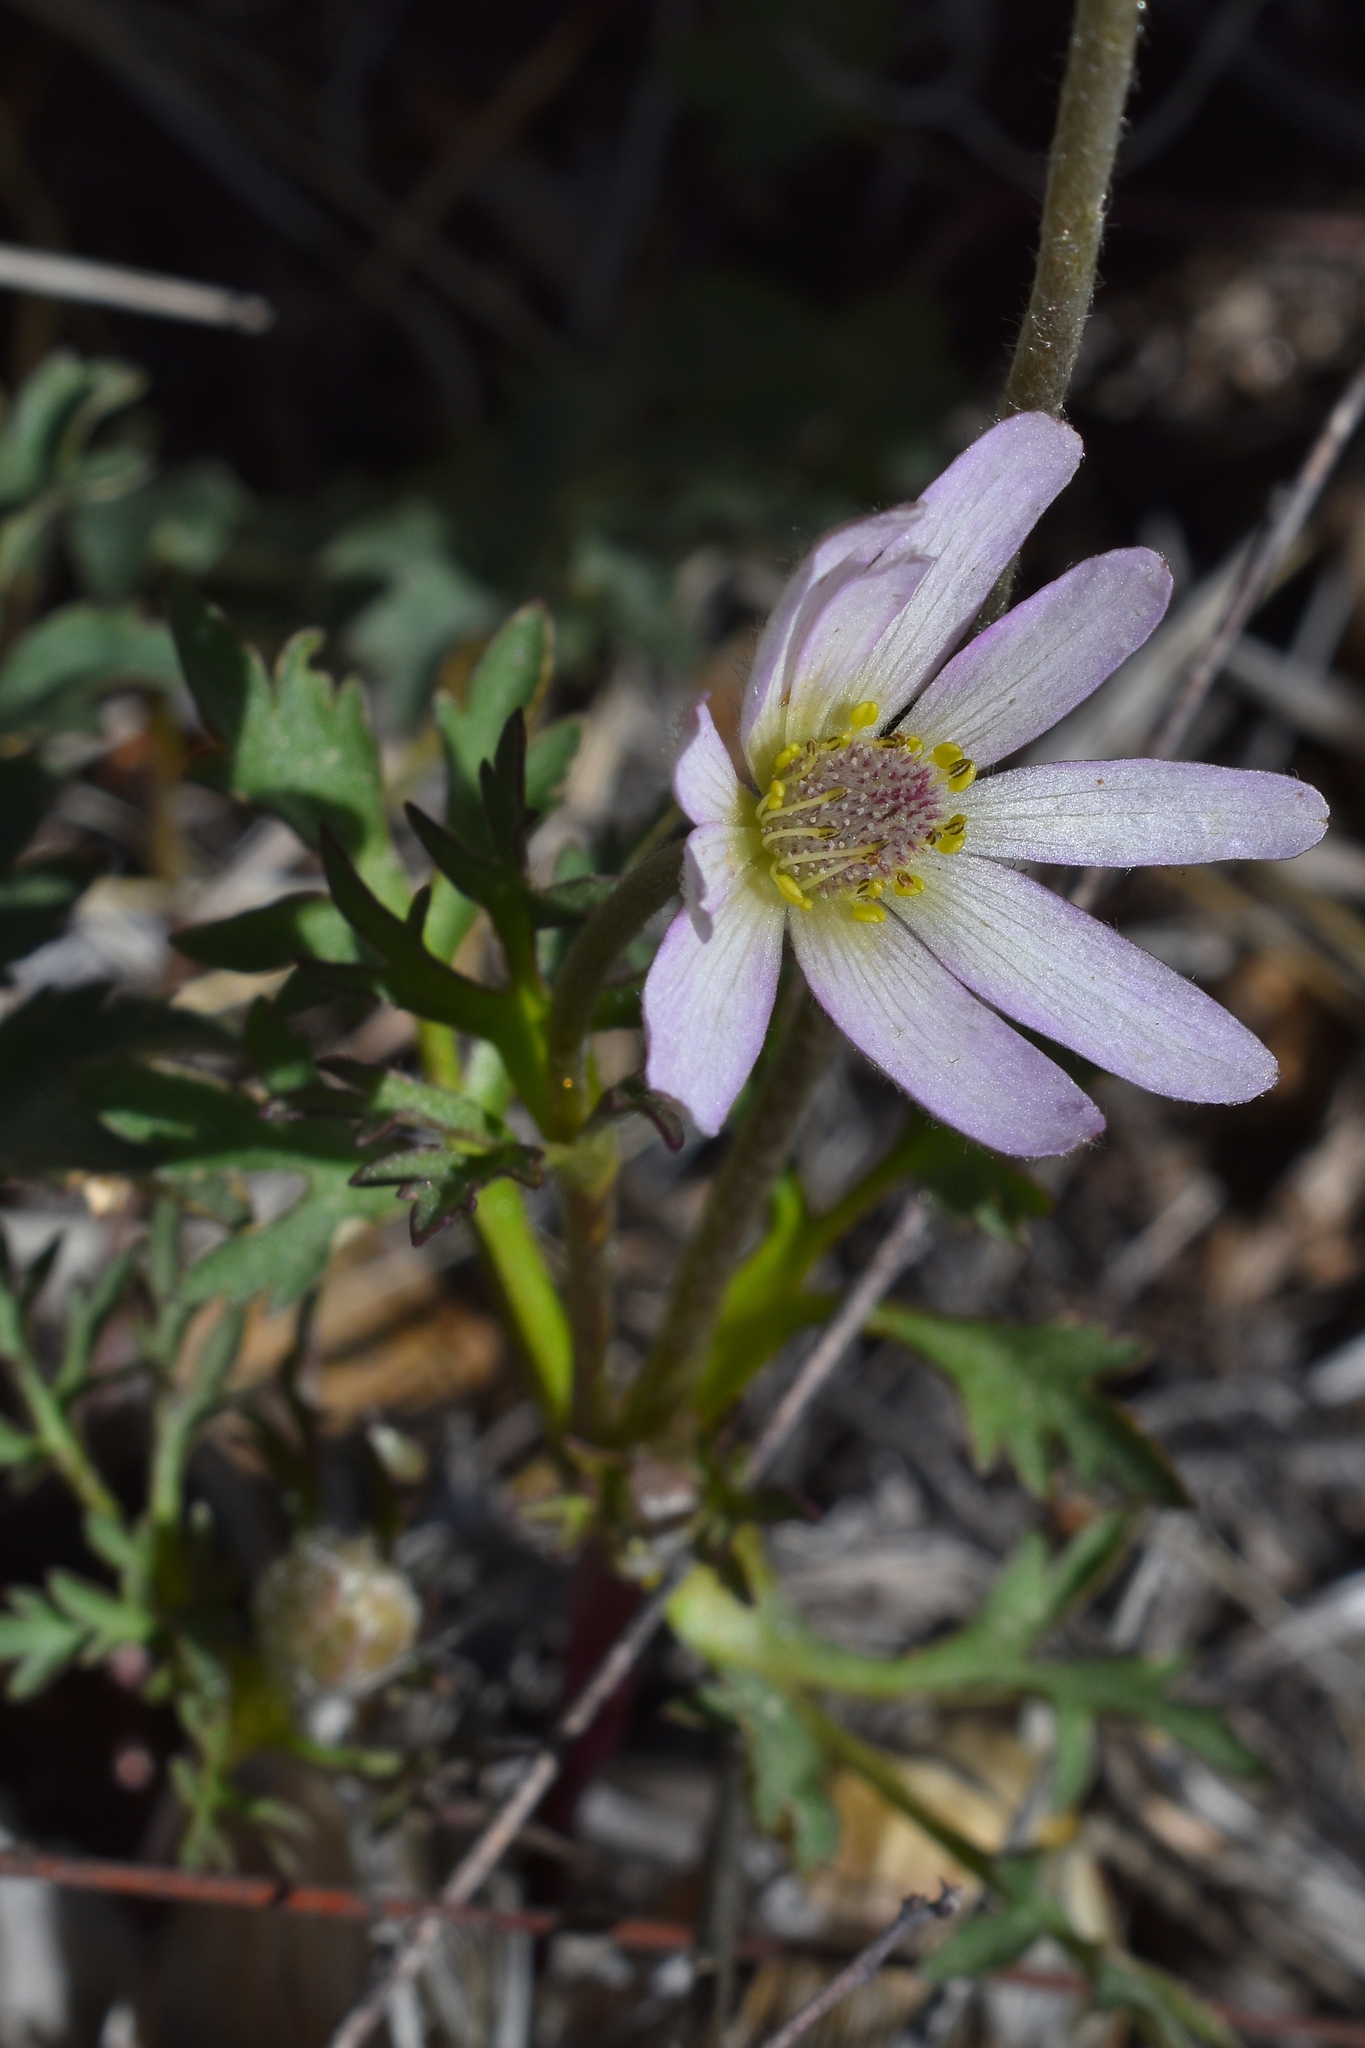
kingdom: Plantae
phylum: Tracheophyta
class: Magnoliopsida
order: Ranunculales
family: Ranunculaceae
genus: Anemone
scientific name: Anemone tuberosa
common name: Desert anemone
